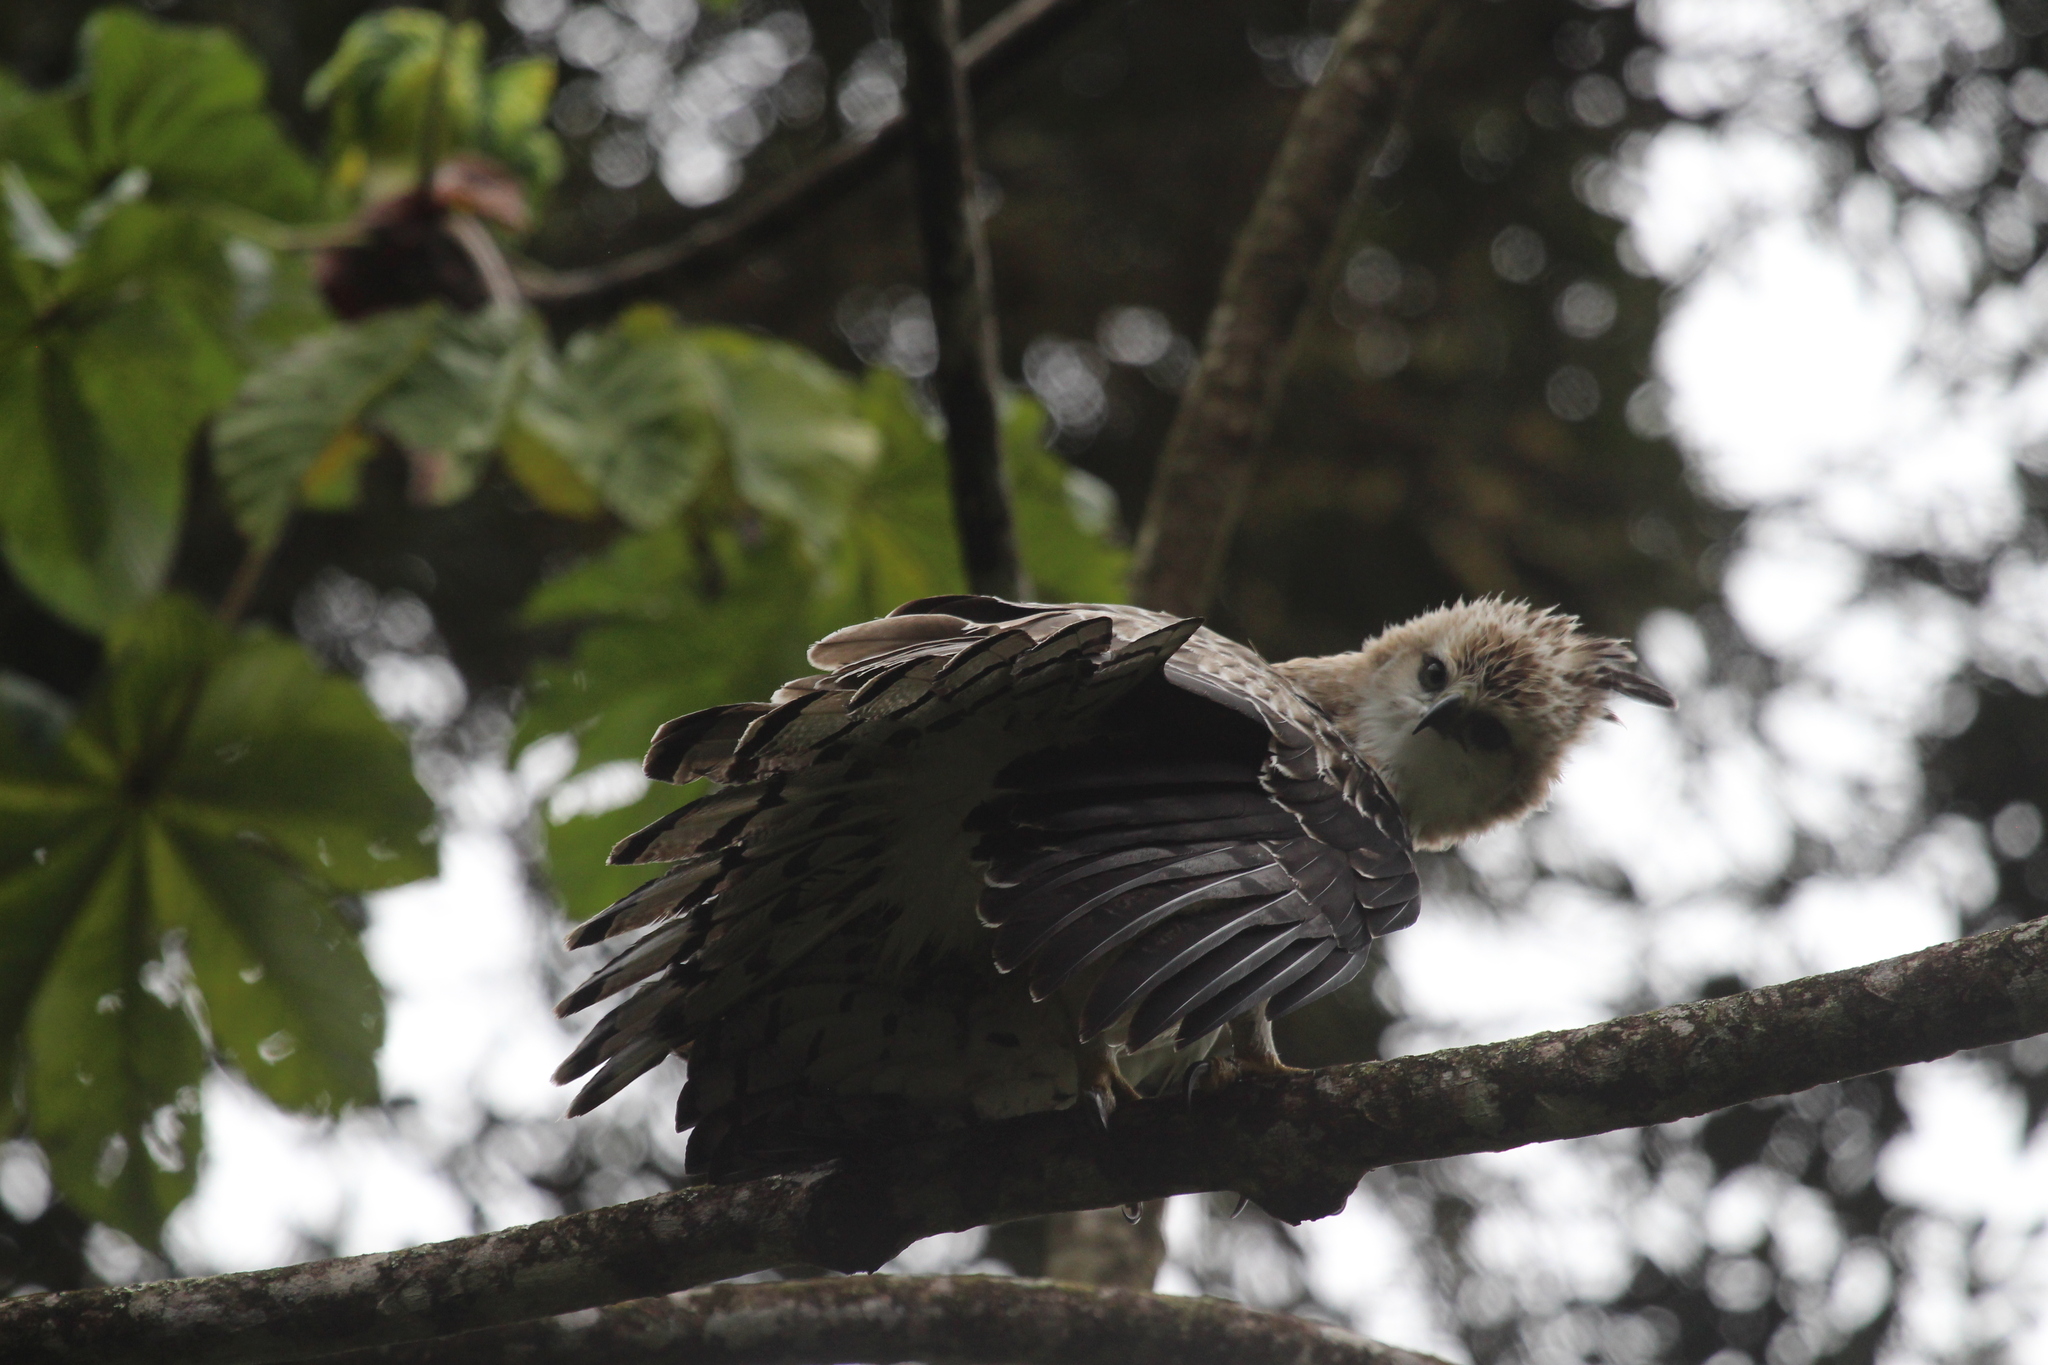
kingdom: Animalia
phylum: Chordata
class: Aves
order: Accipitriformes
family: Accipitridae
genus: Spizaetus
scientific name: Spizaetus isidori
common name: Black-and-chestnut eagle
